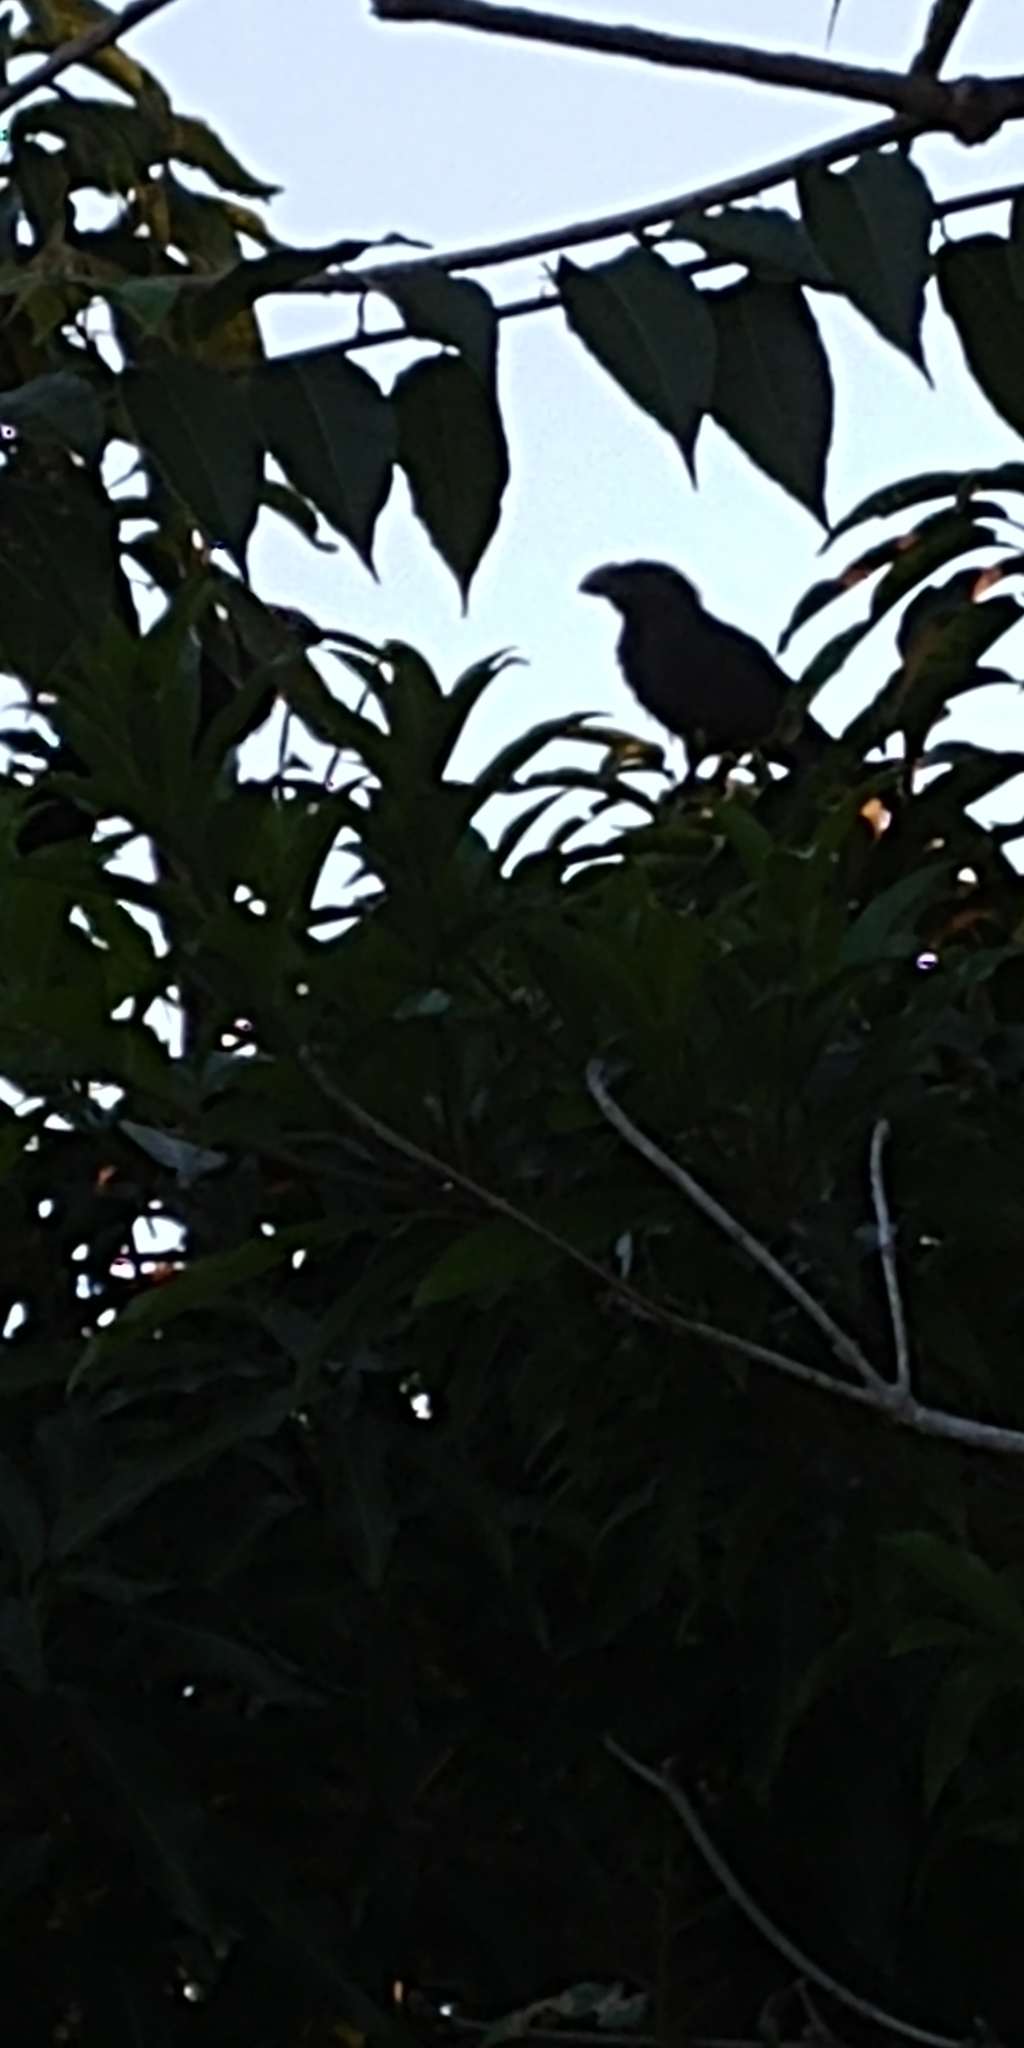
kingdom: Animalia
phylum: Chordata
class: Aves
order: Cuculiformes
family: Cuculidae
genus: Crotophaga
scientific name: Crotophaga ani
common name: Smooth-billed ani
